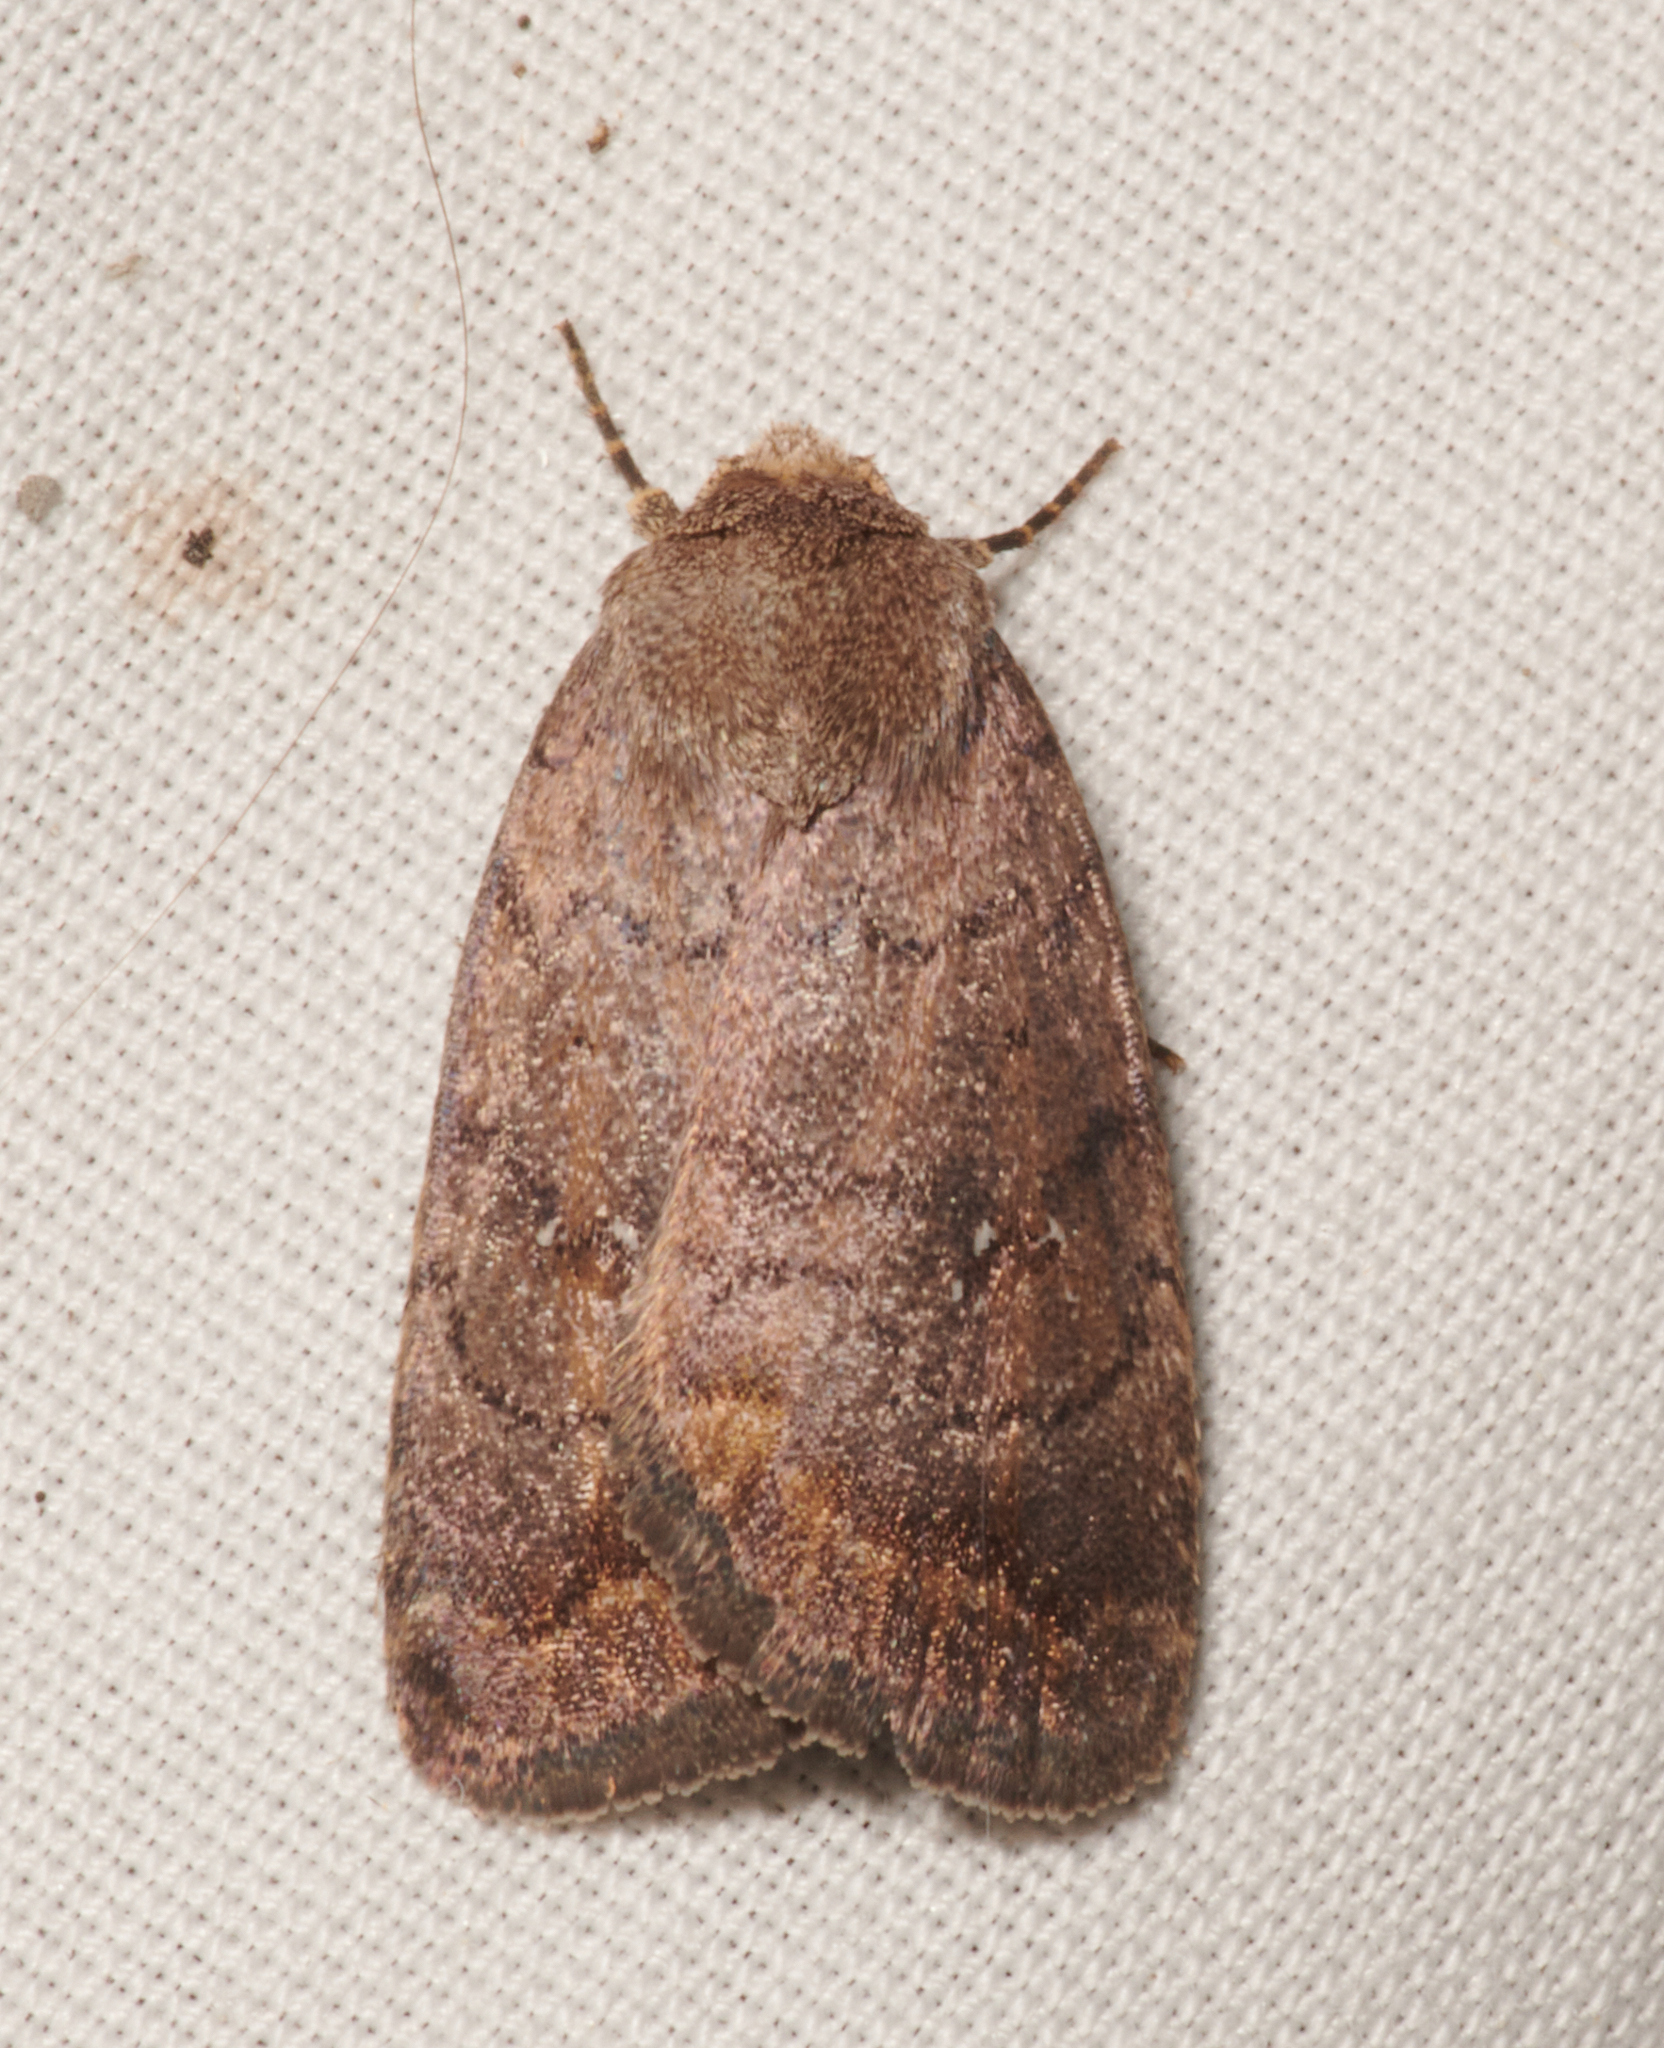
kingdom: Animalia
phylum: Arthropoda
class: Insecta
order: Lepidoptera
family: Noctuidae
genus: Athetis
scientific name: Athetis tarda
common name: Slowpoke moth
